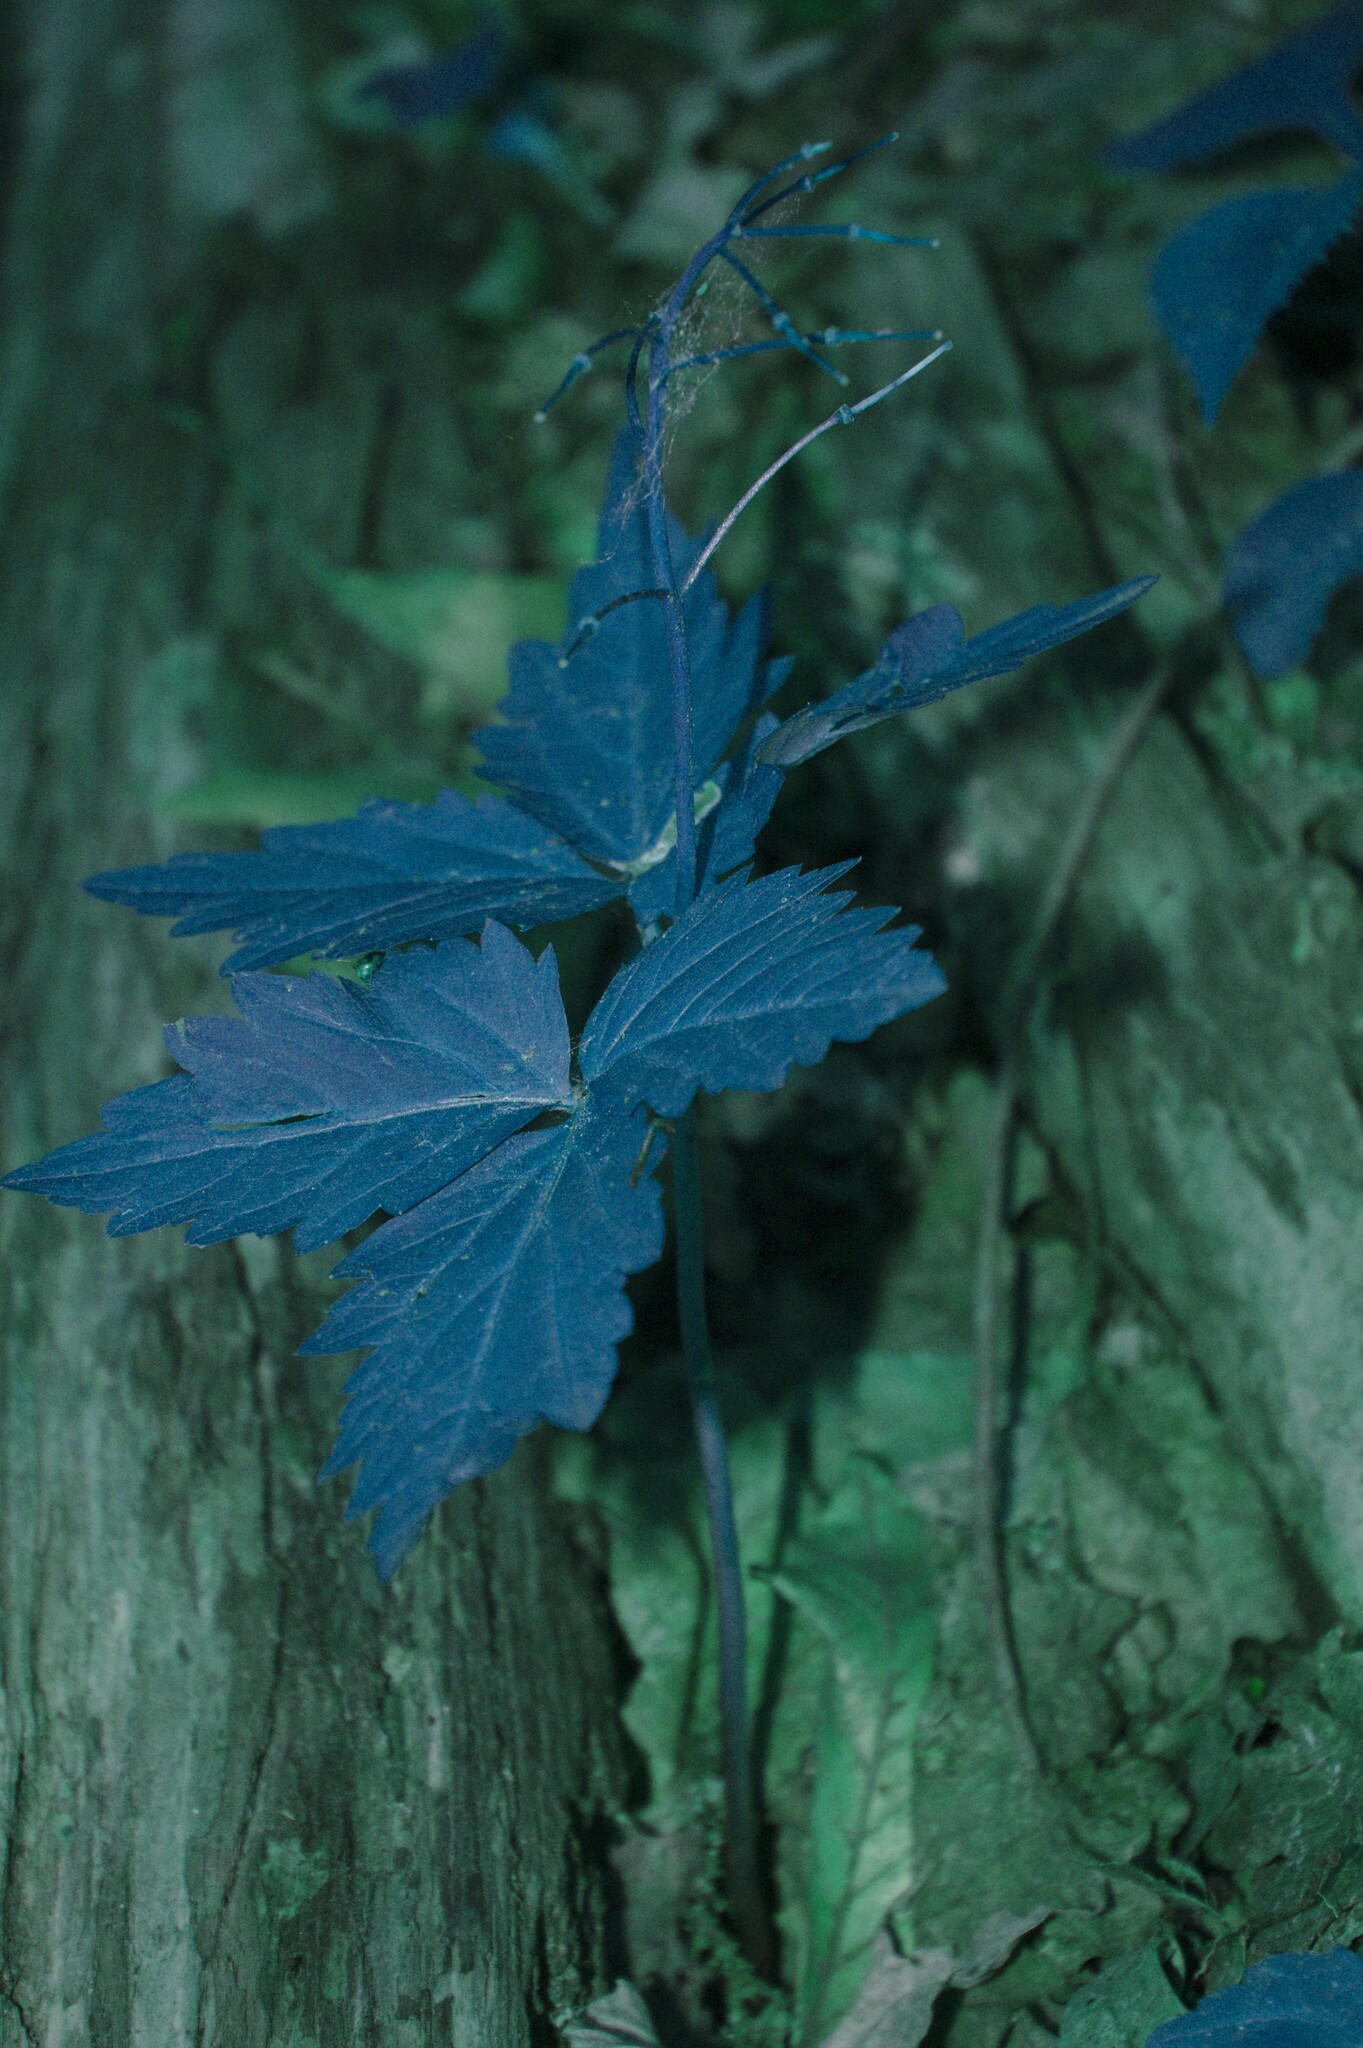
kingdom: Plantae
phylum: Tracheophyta
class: Magnoliopsida
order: Brassicales
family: Brassicaceae
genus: Cardamine
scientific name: Cardamine diphylla
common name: Broad-leaved toothwort
